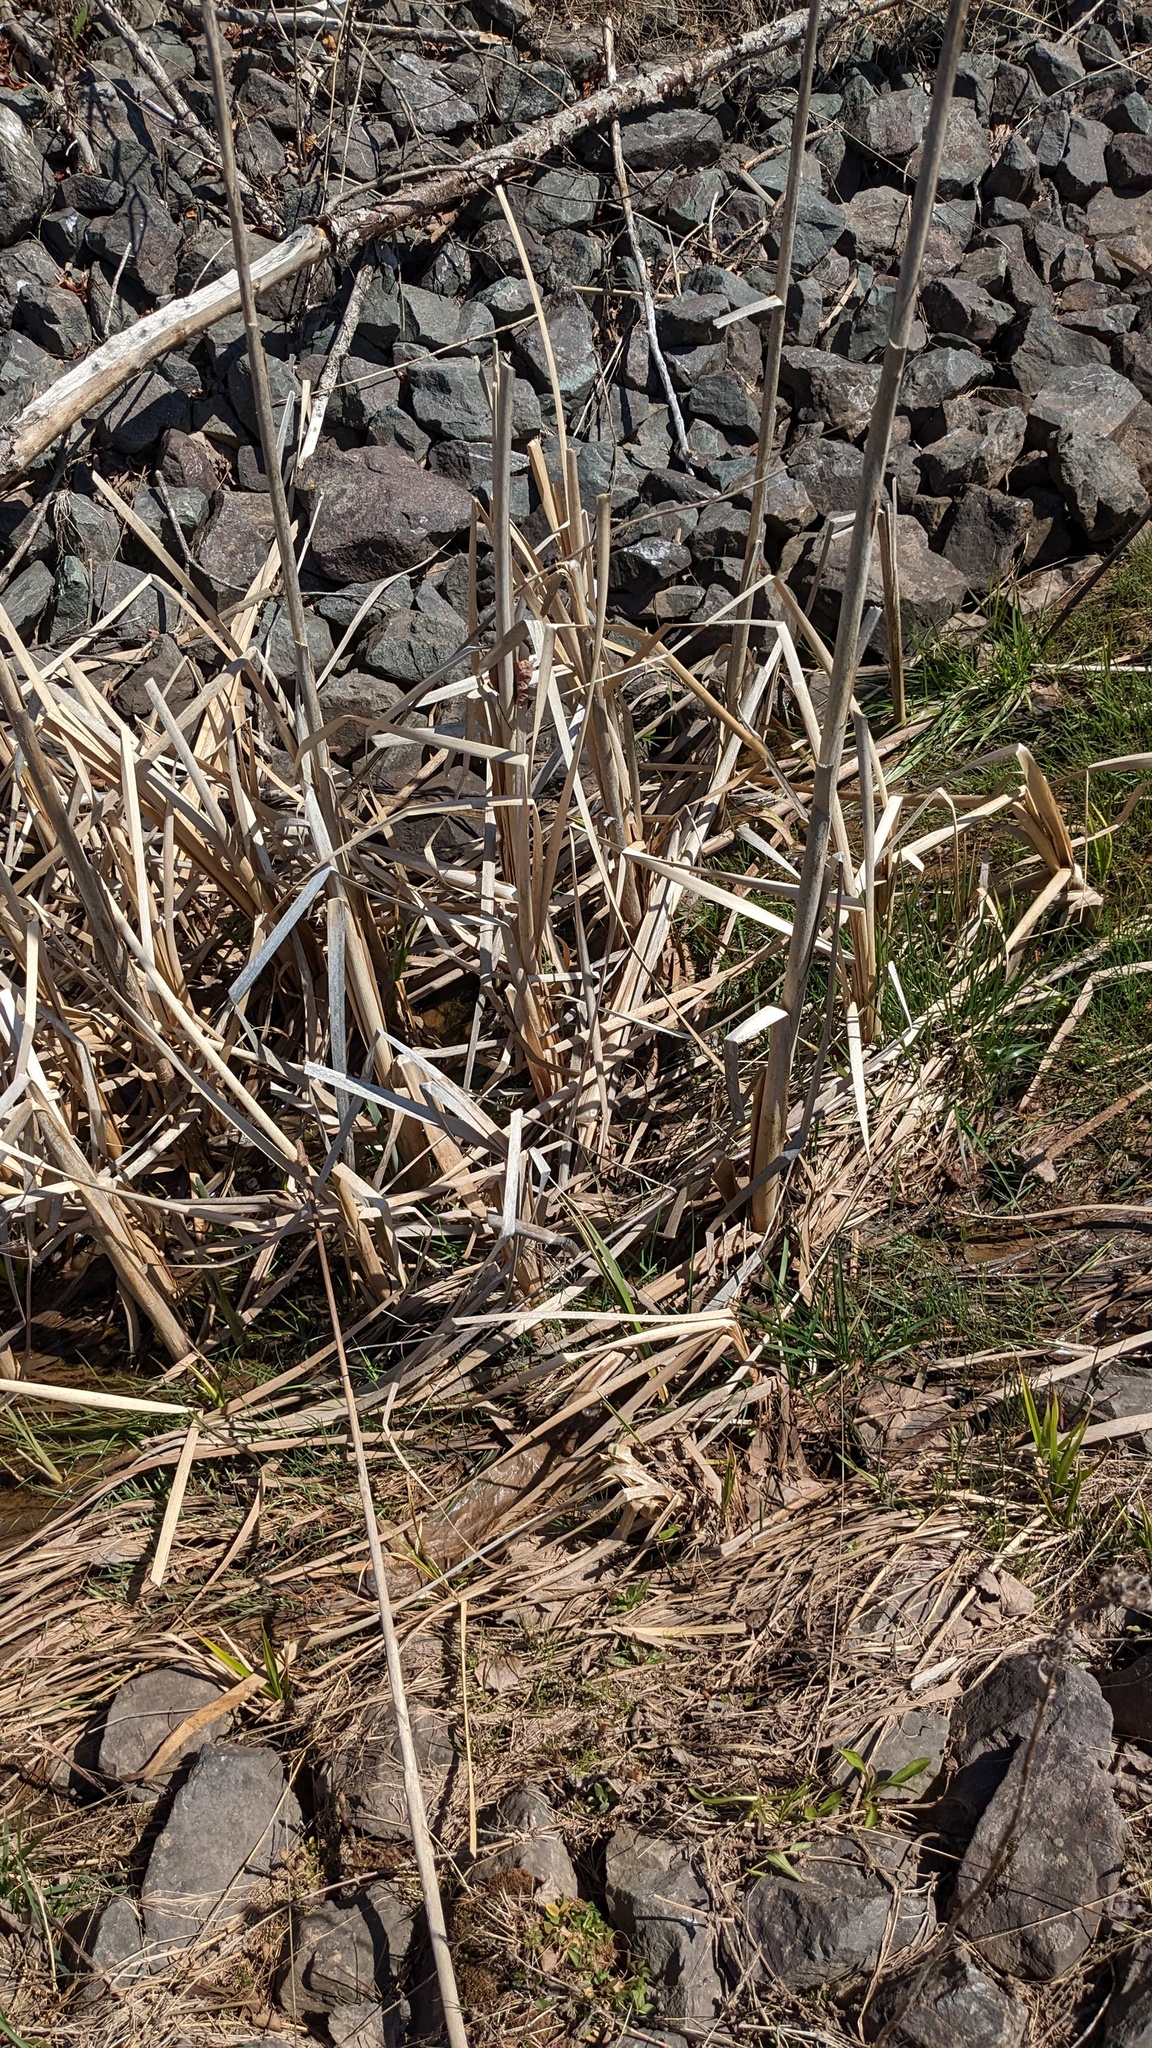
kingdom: Plantae
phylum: Tracheophyta
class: Liliopsida
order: Poales
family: Typhaceae
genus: Typha
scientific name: Typha latifolia
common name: Broadleaf cattail
